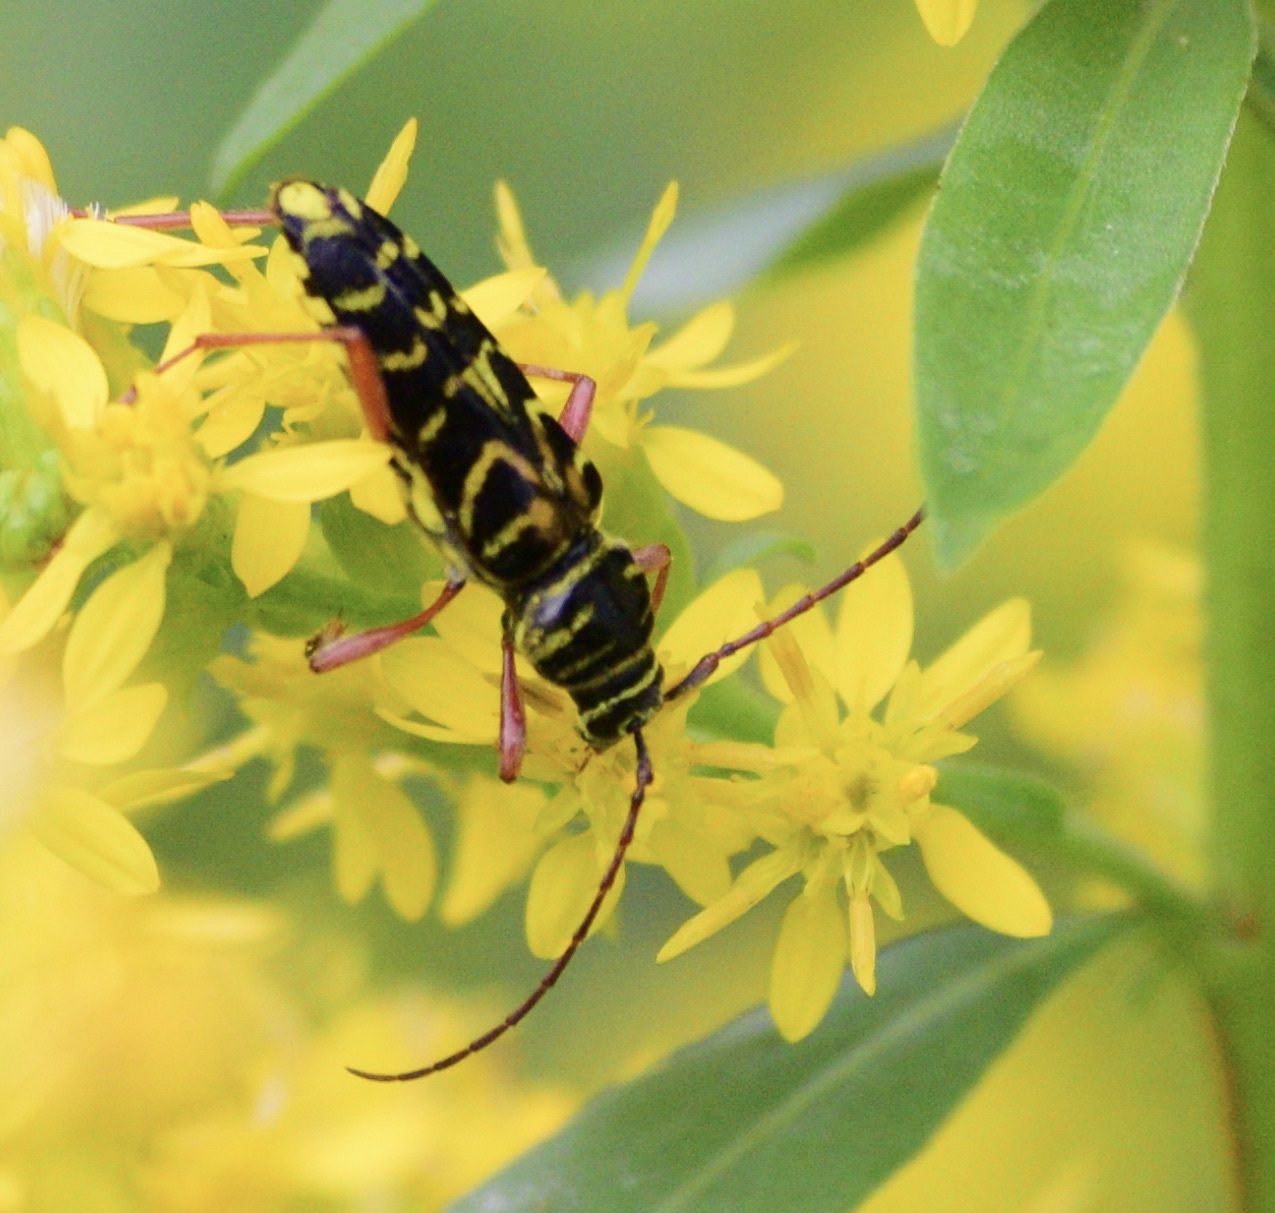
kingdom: Animalia
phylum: Arthropoda
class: Insecta
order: Coleoptera
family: Cerambycidae
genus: Megacyllene
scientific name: Megacyllene robiniae
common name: Locust borer
